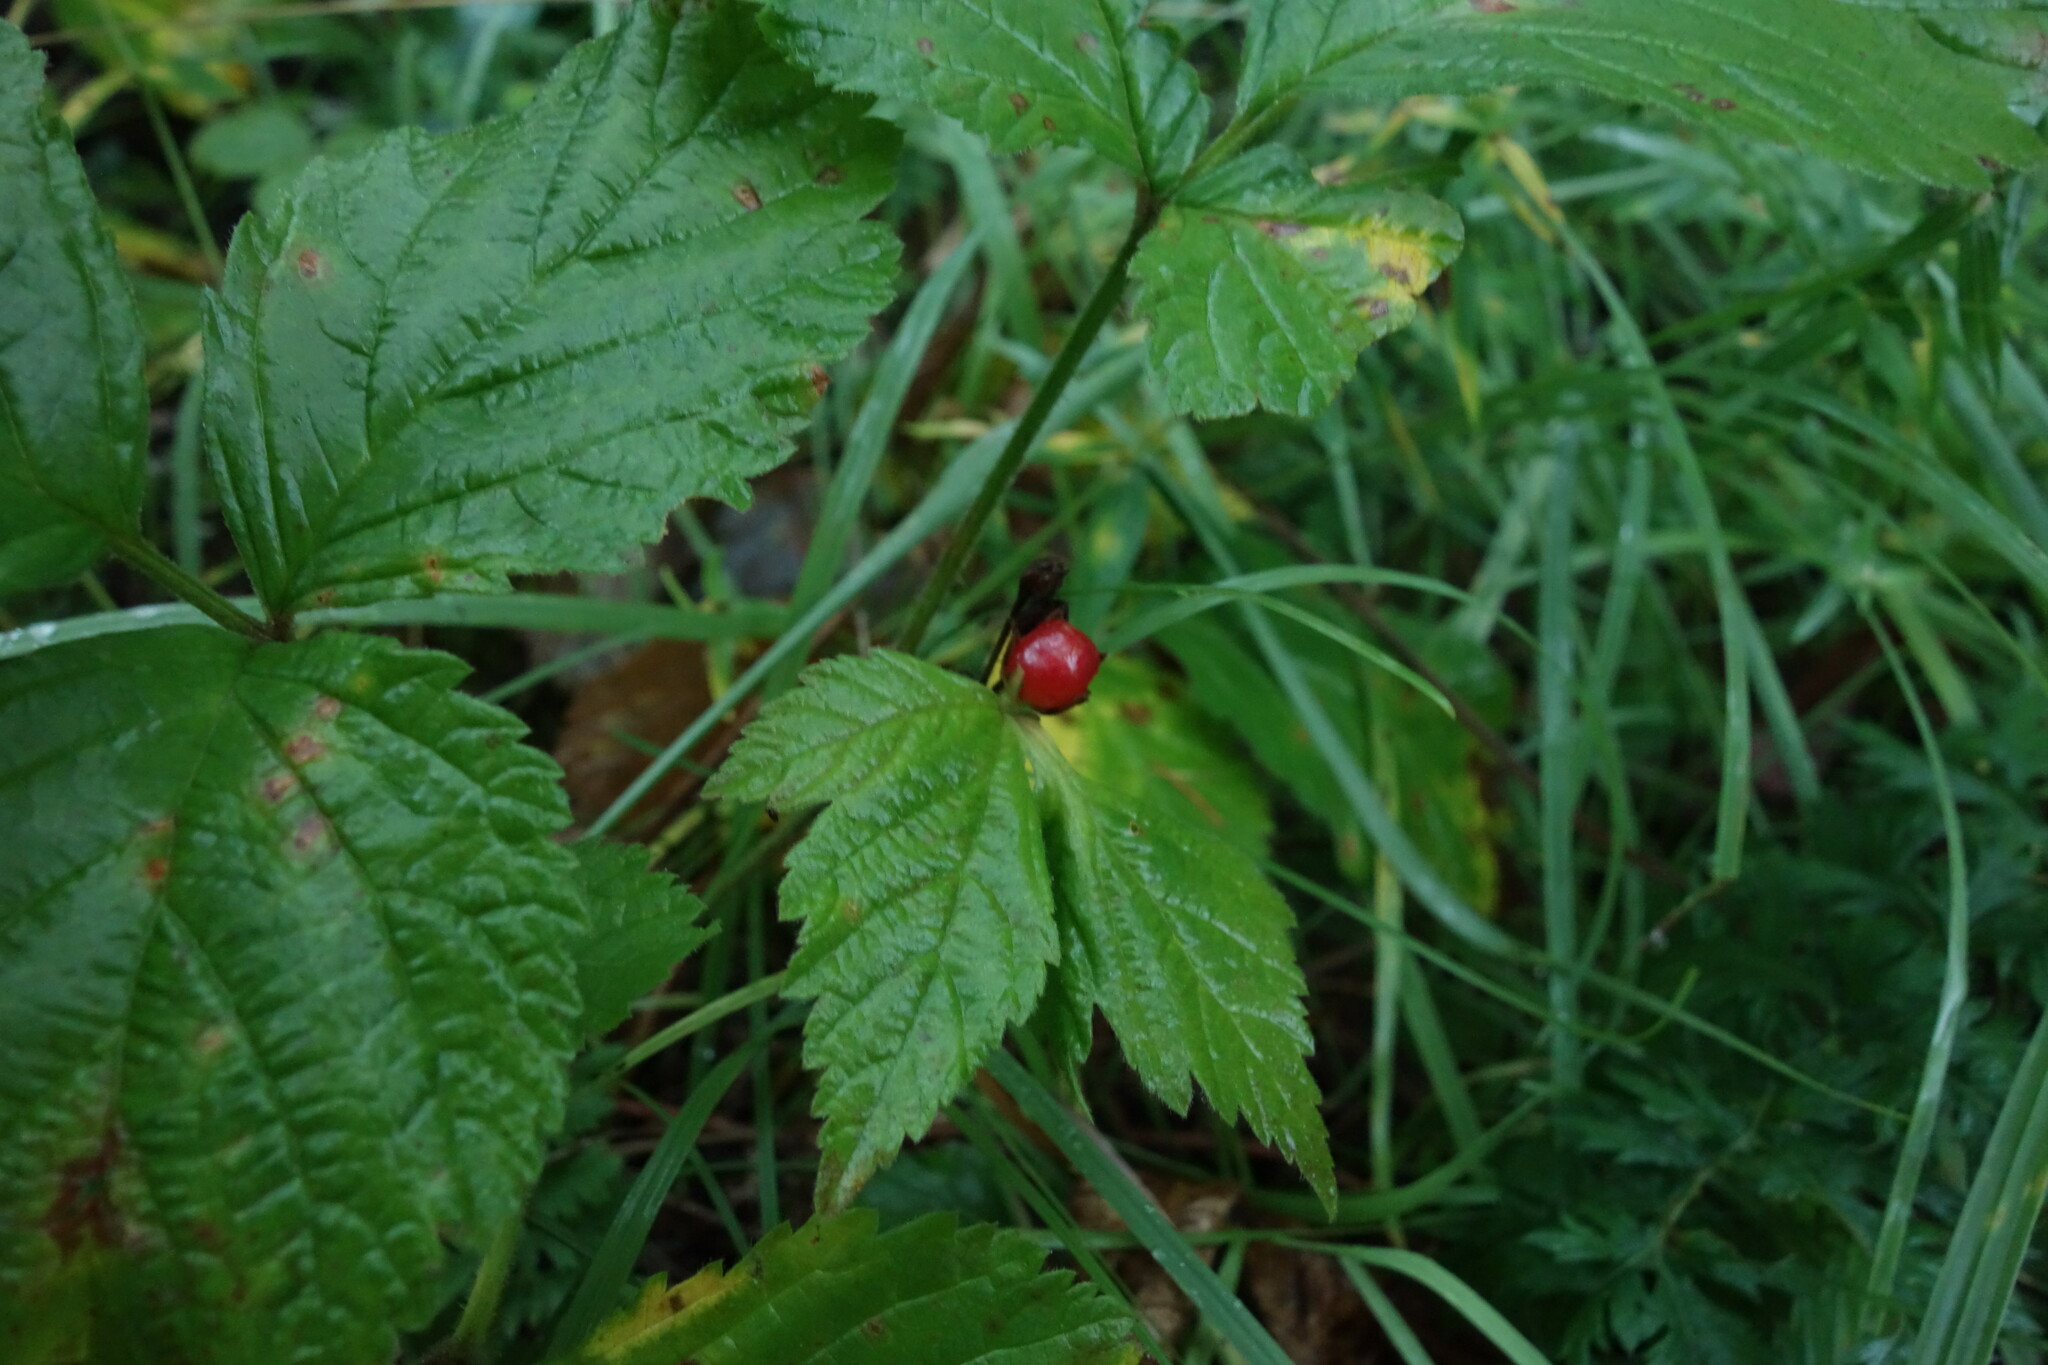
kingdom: Plantae
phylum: Tracheophyta
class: Magnoliopsida
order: Rosales
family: Rosaceae
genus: Rubus
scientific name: Rubus saxatilis
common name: Stone bramble
